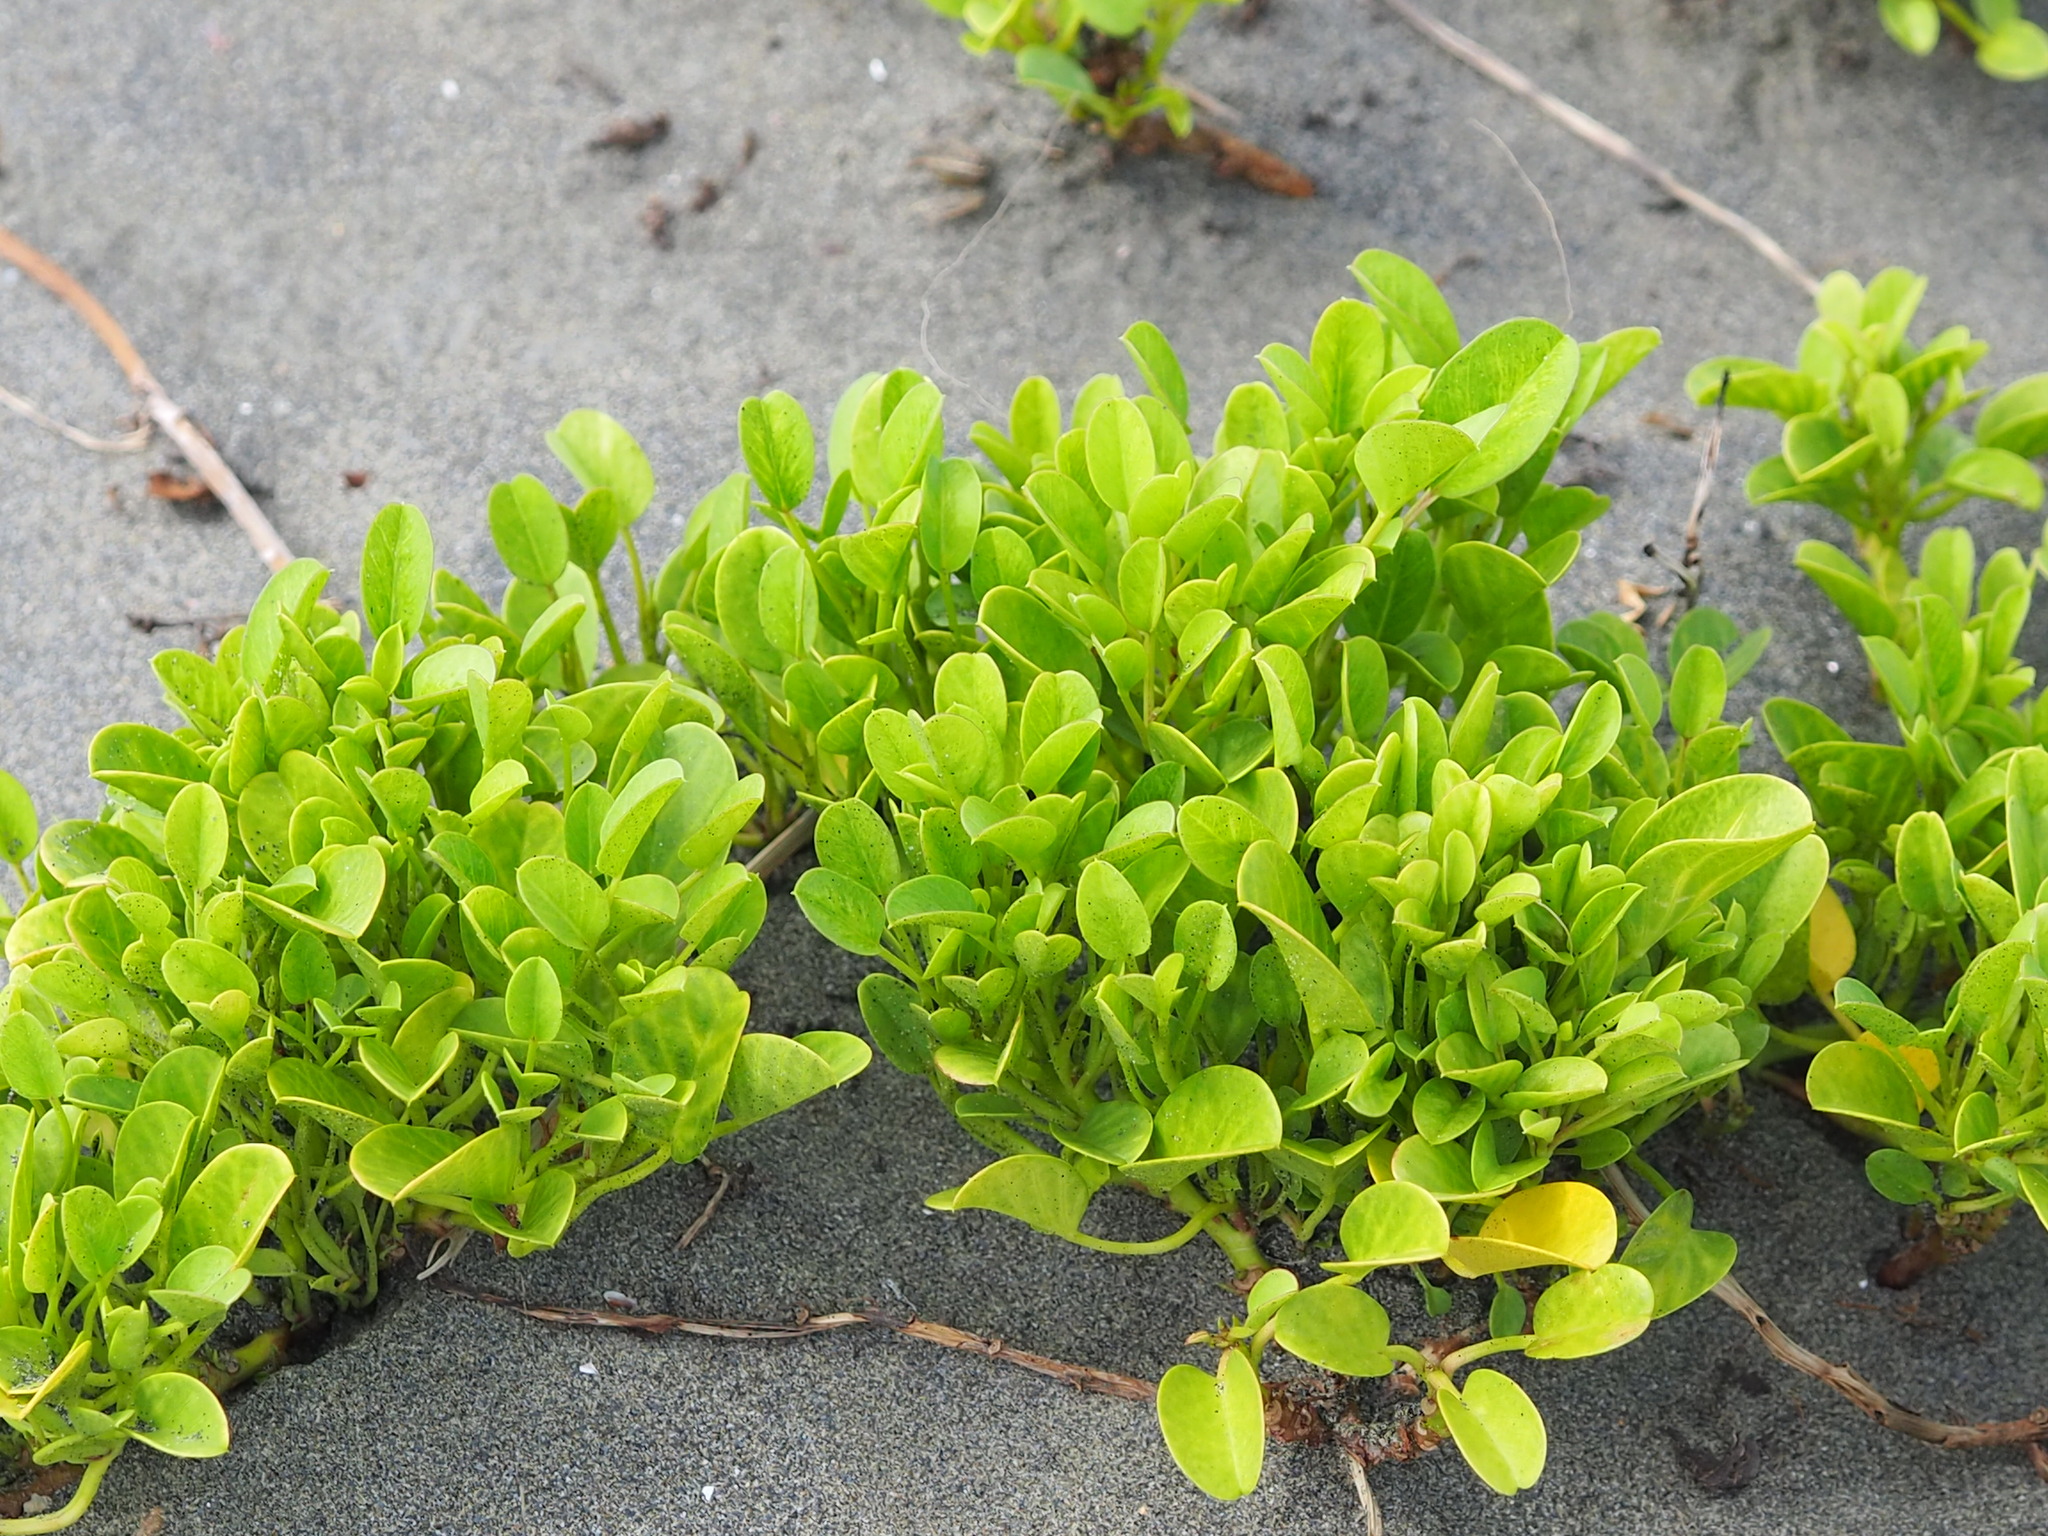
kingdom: Plantae
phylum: Tracheophyta
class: Magnoliopsida
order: Solanales
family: Convolvulaceae
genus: Ipomoea
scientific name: Ipomoea pes-caprae
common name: Beach morning glory
